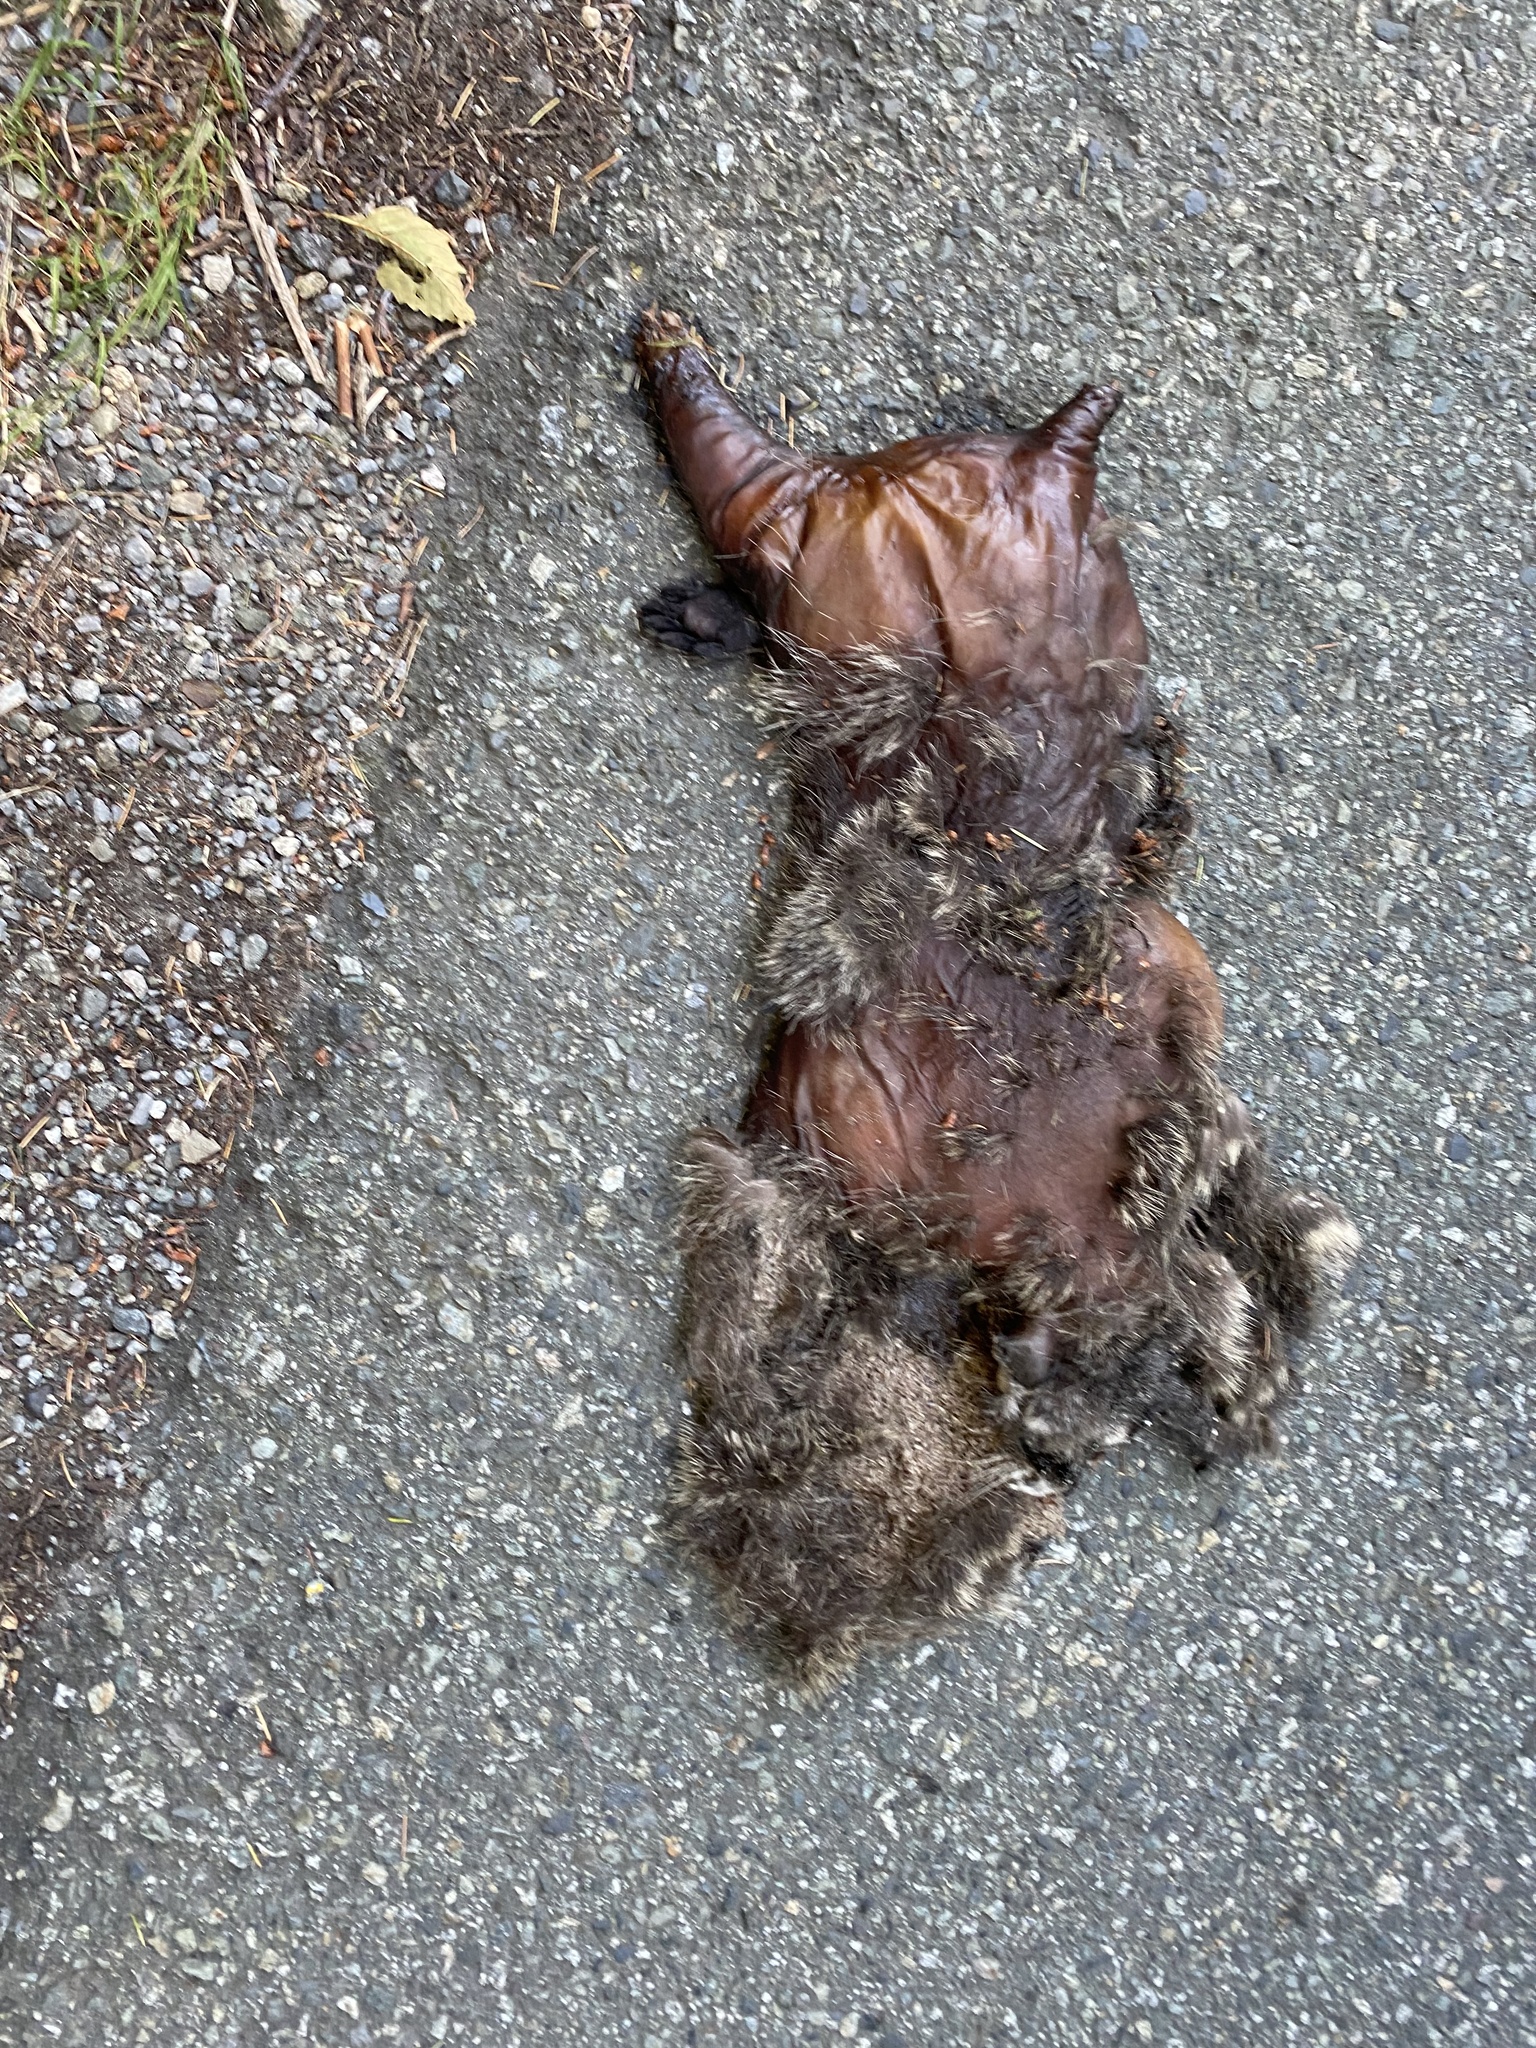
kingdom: Animalia
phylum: Chordata
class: Mammalia
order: Carnivora
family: Procyonidae
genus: Procyon
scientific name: Procyon lotor
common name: Raccoon
